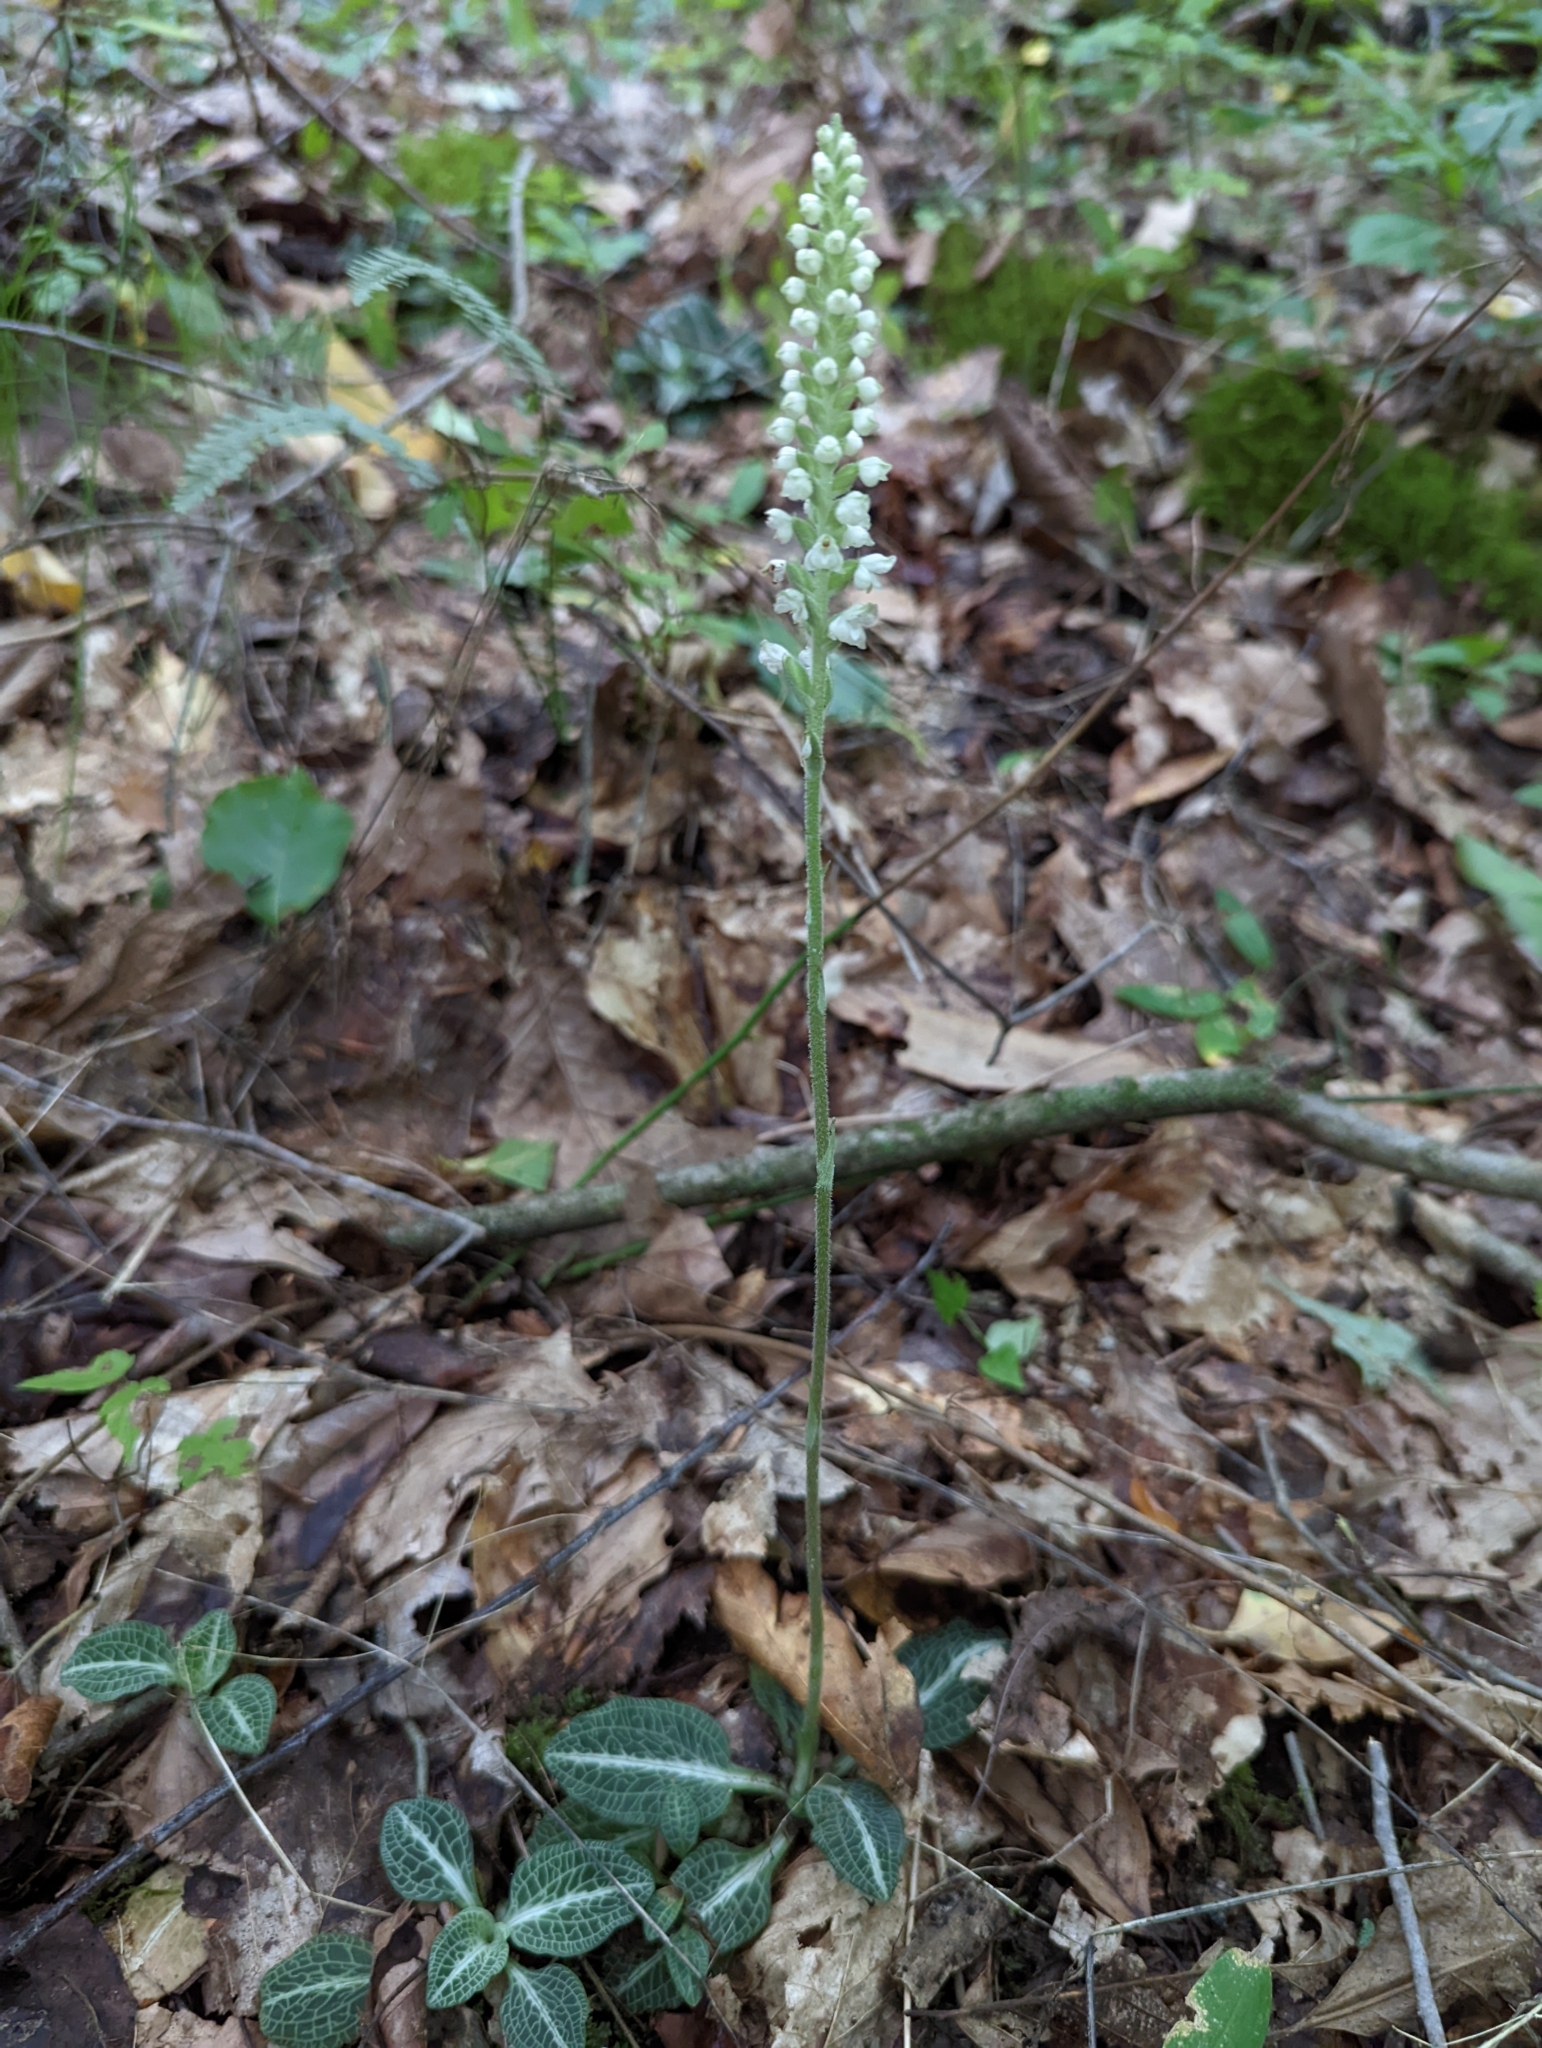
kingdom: Plantae
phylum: Tracheophyta
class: Liliopsida
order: Asparagales
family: Orchidaceae
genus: Goodyera
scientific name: Goodyera pubescens
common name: Downy rattlesnake-plantain
